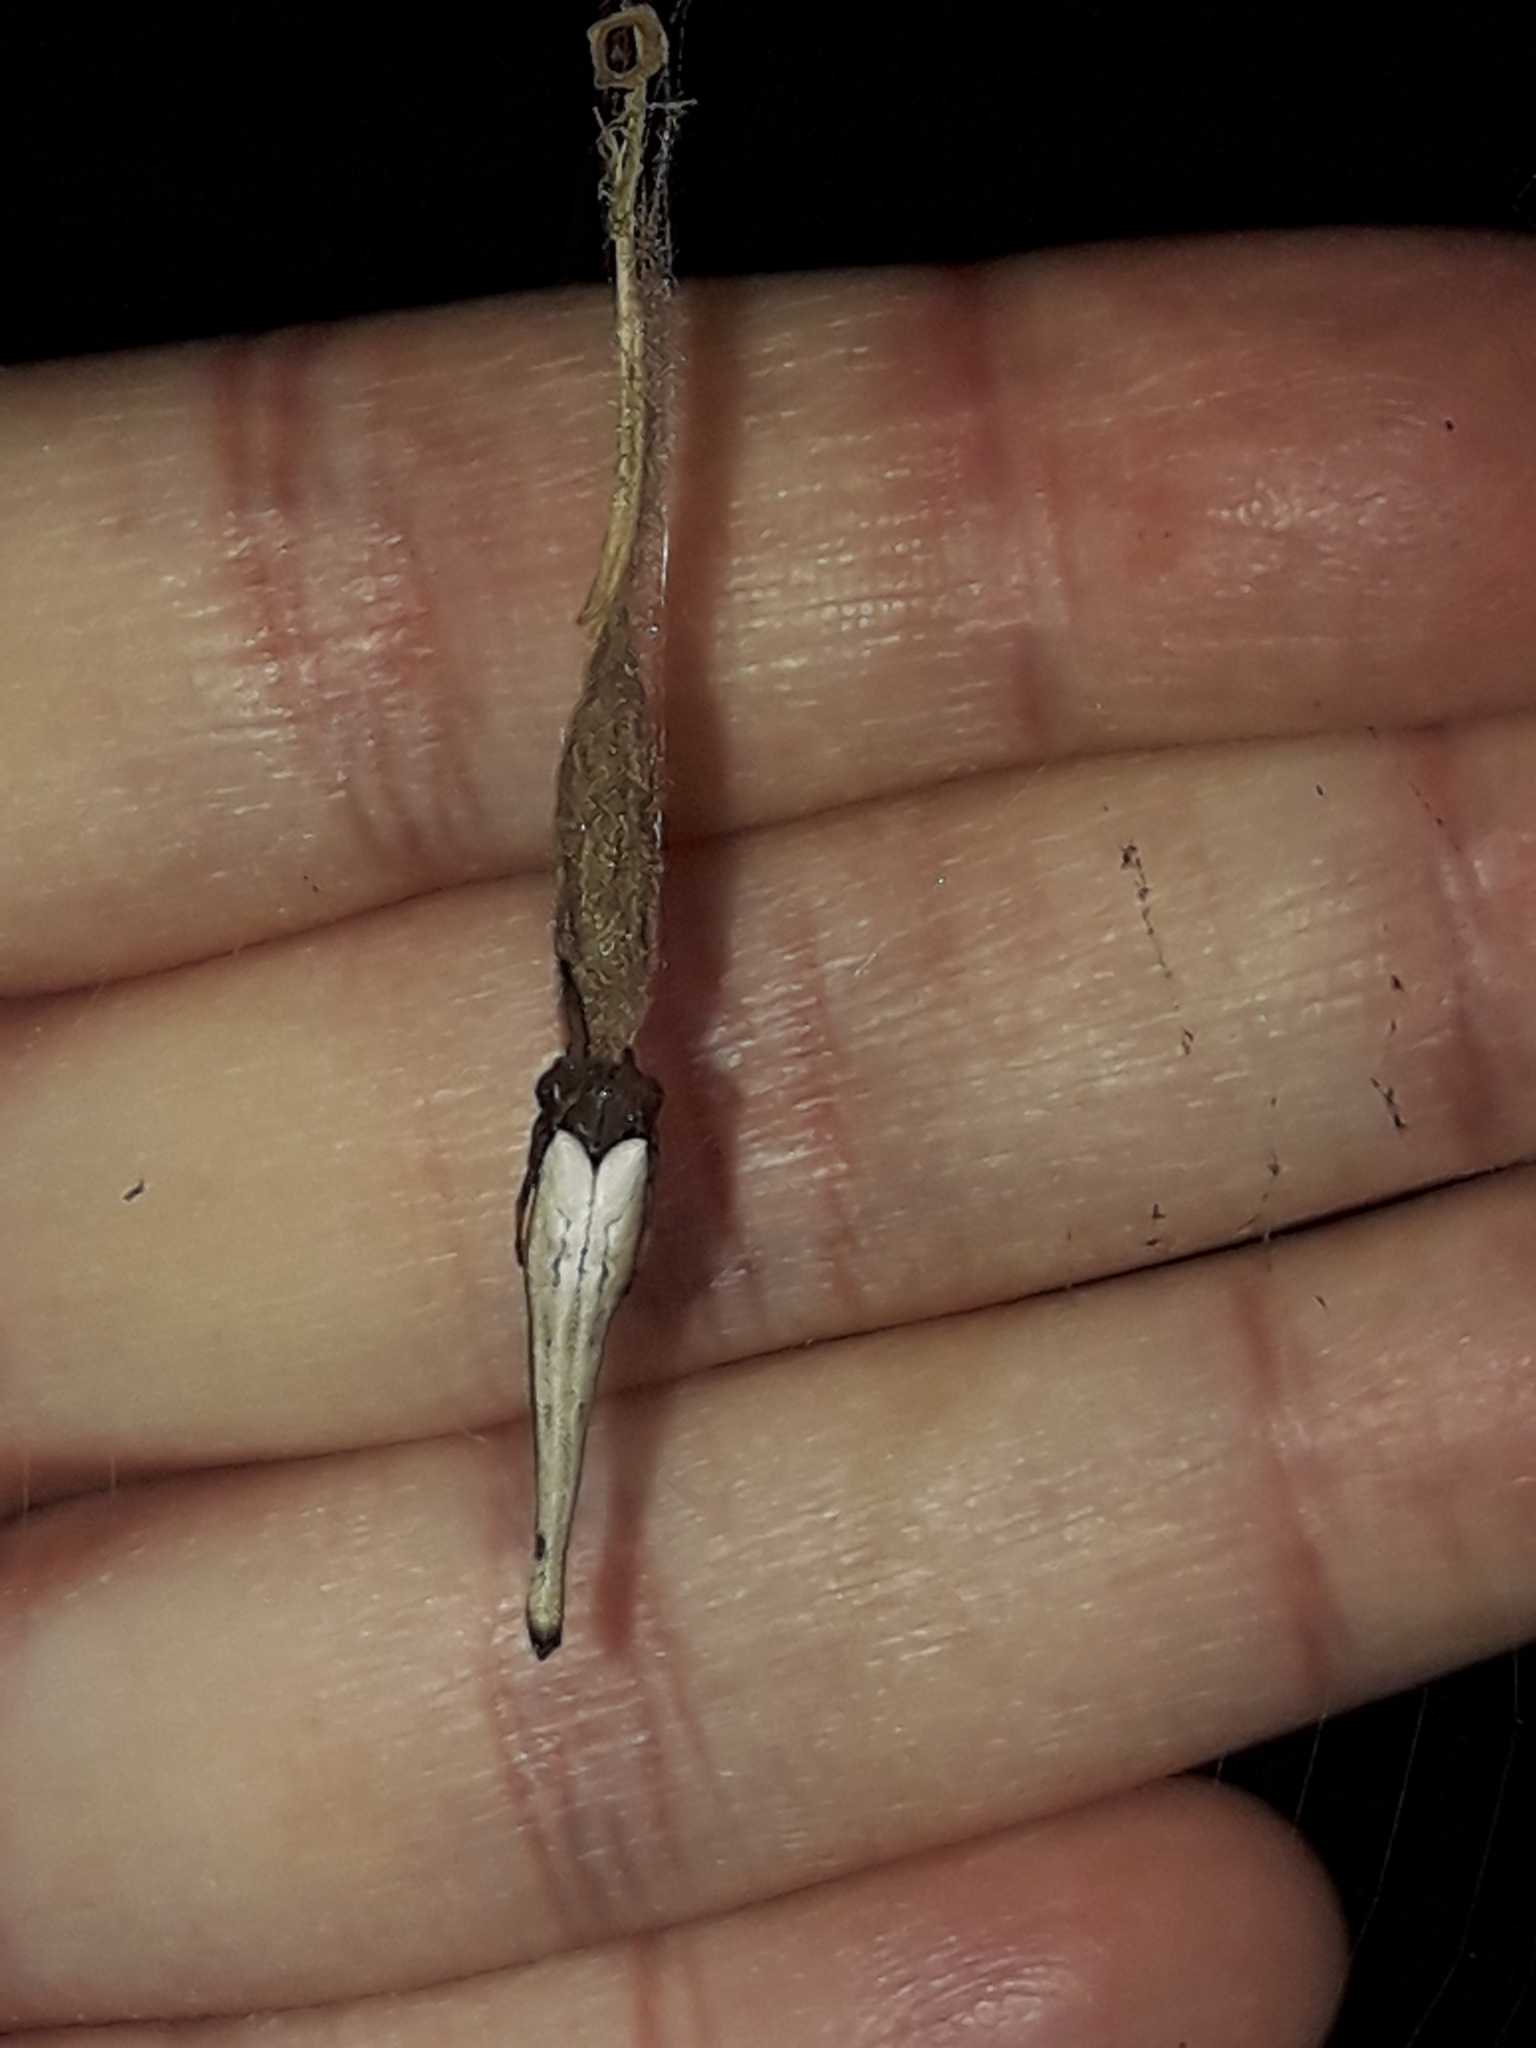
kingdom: Animalia
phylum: Arthropoda
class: Arachnida
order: Araneae
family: Araneidae
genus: Arachnura
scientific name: Arachnura feredayi
